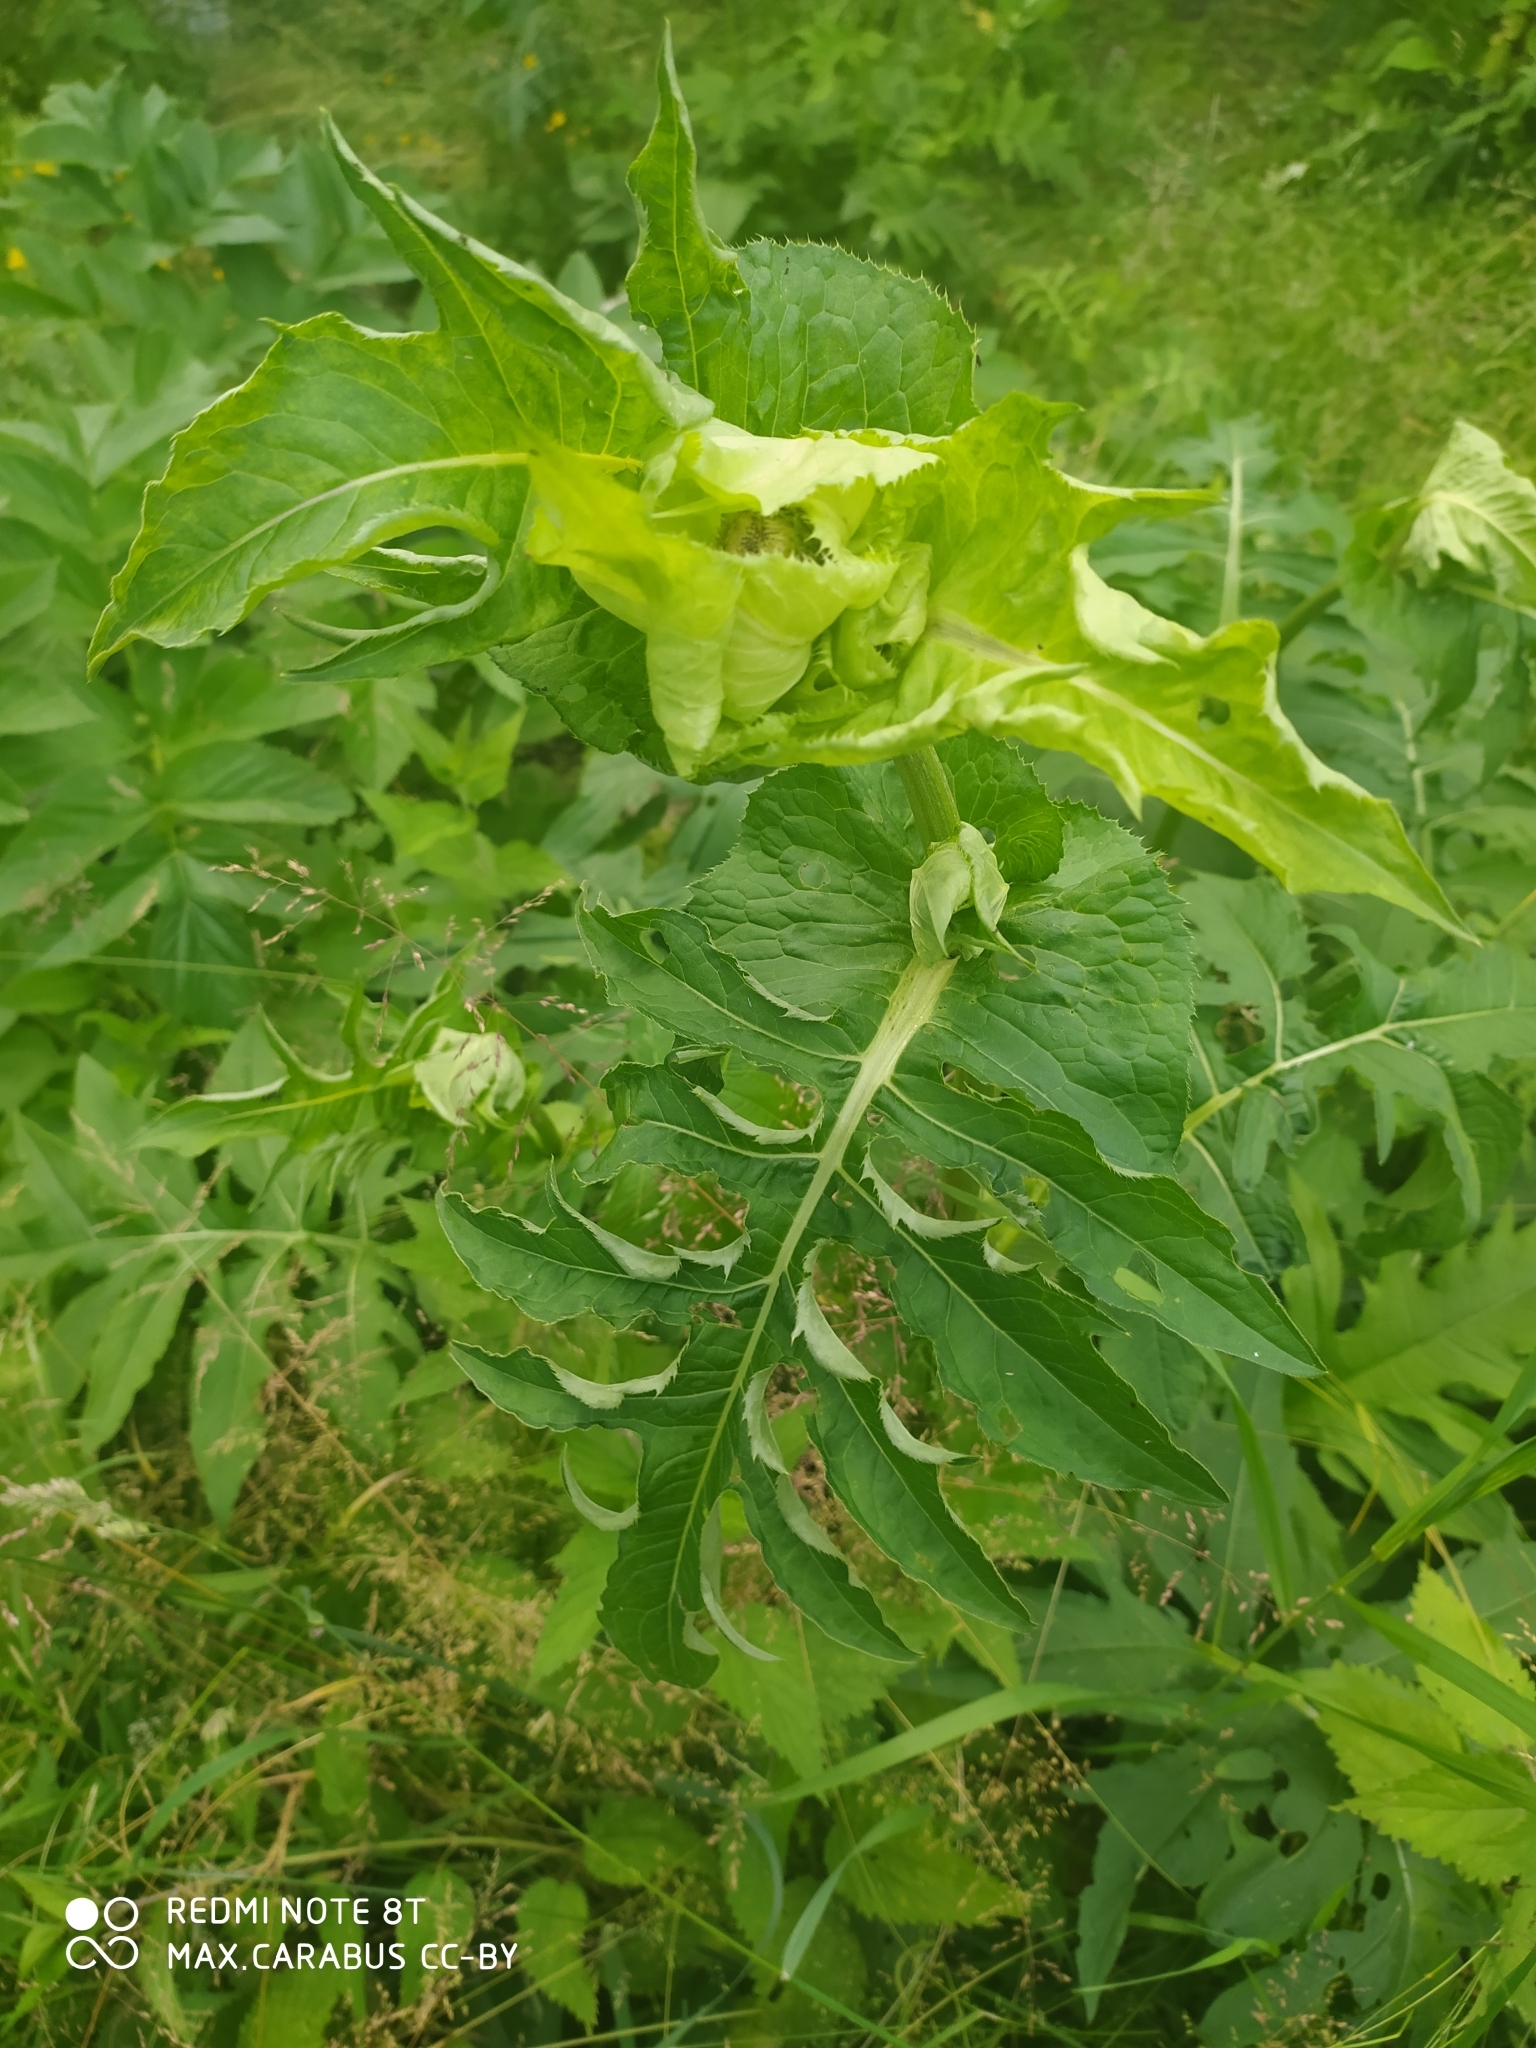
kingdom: Plantae
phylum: Tracheophyta
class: Magnoliopsida
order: Asterales
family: Asteraceae
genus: Cirsium
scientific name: Cirsium oleraceum
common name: Cabbage thistle
